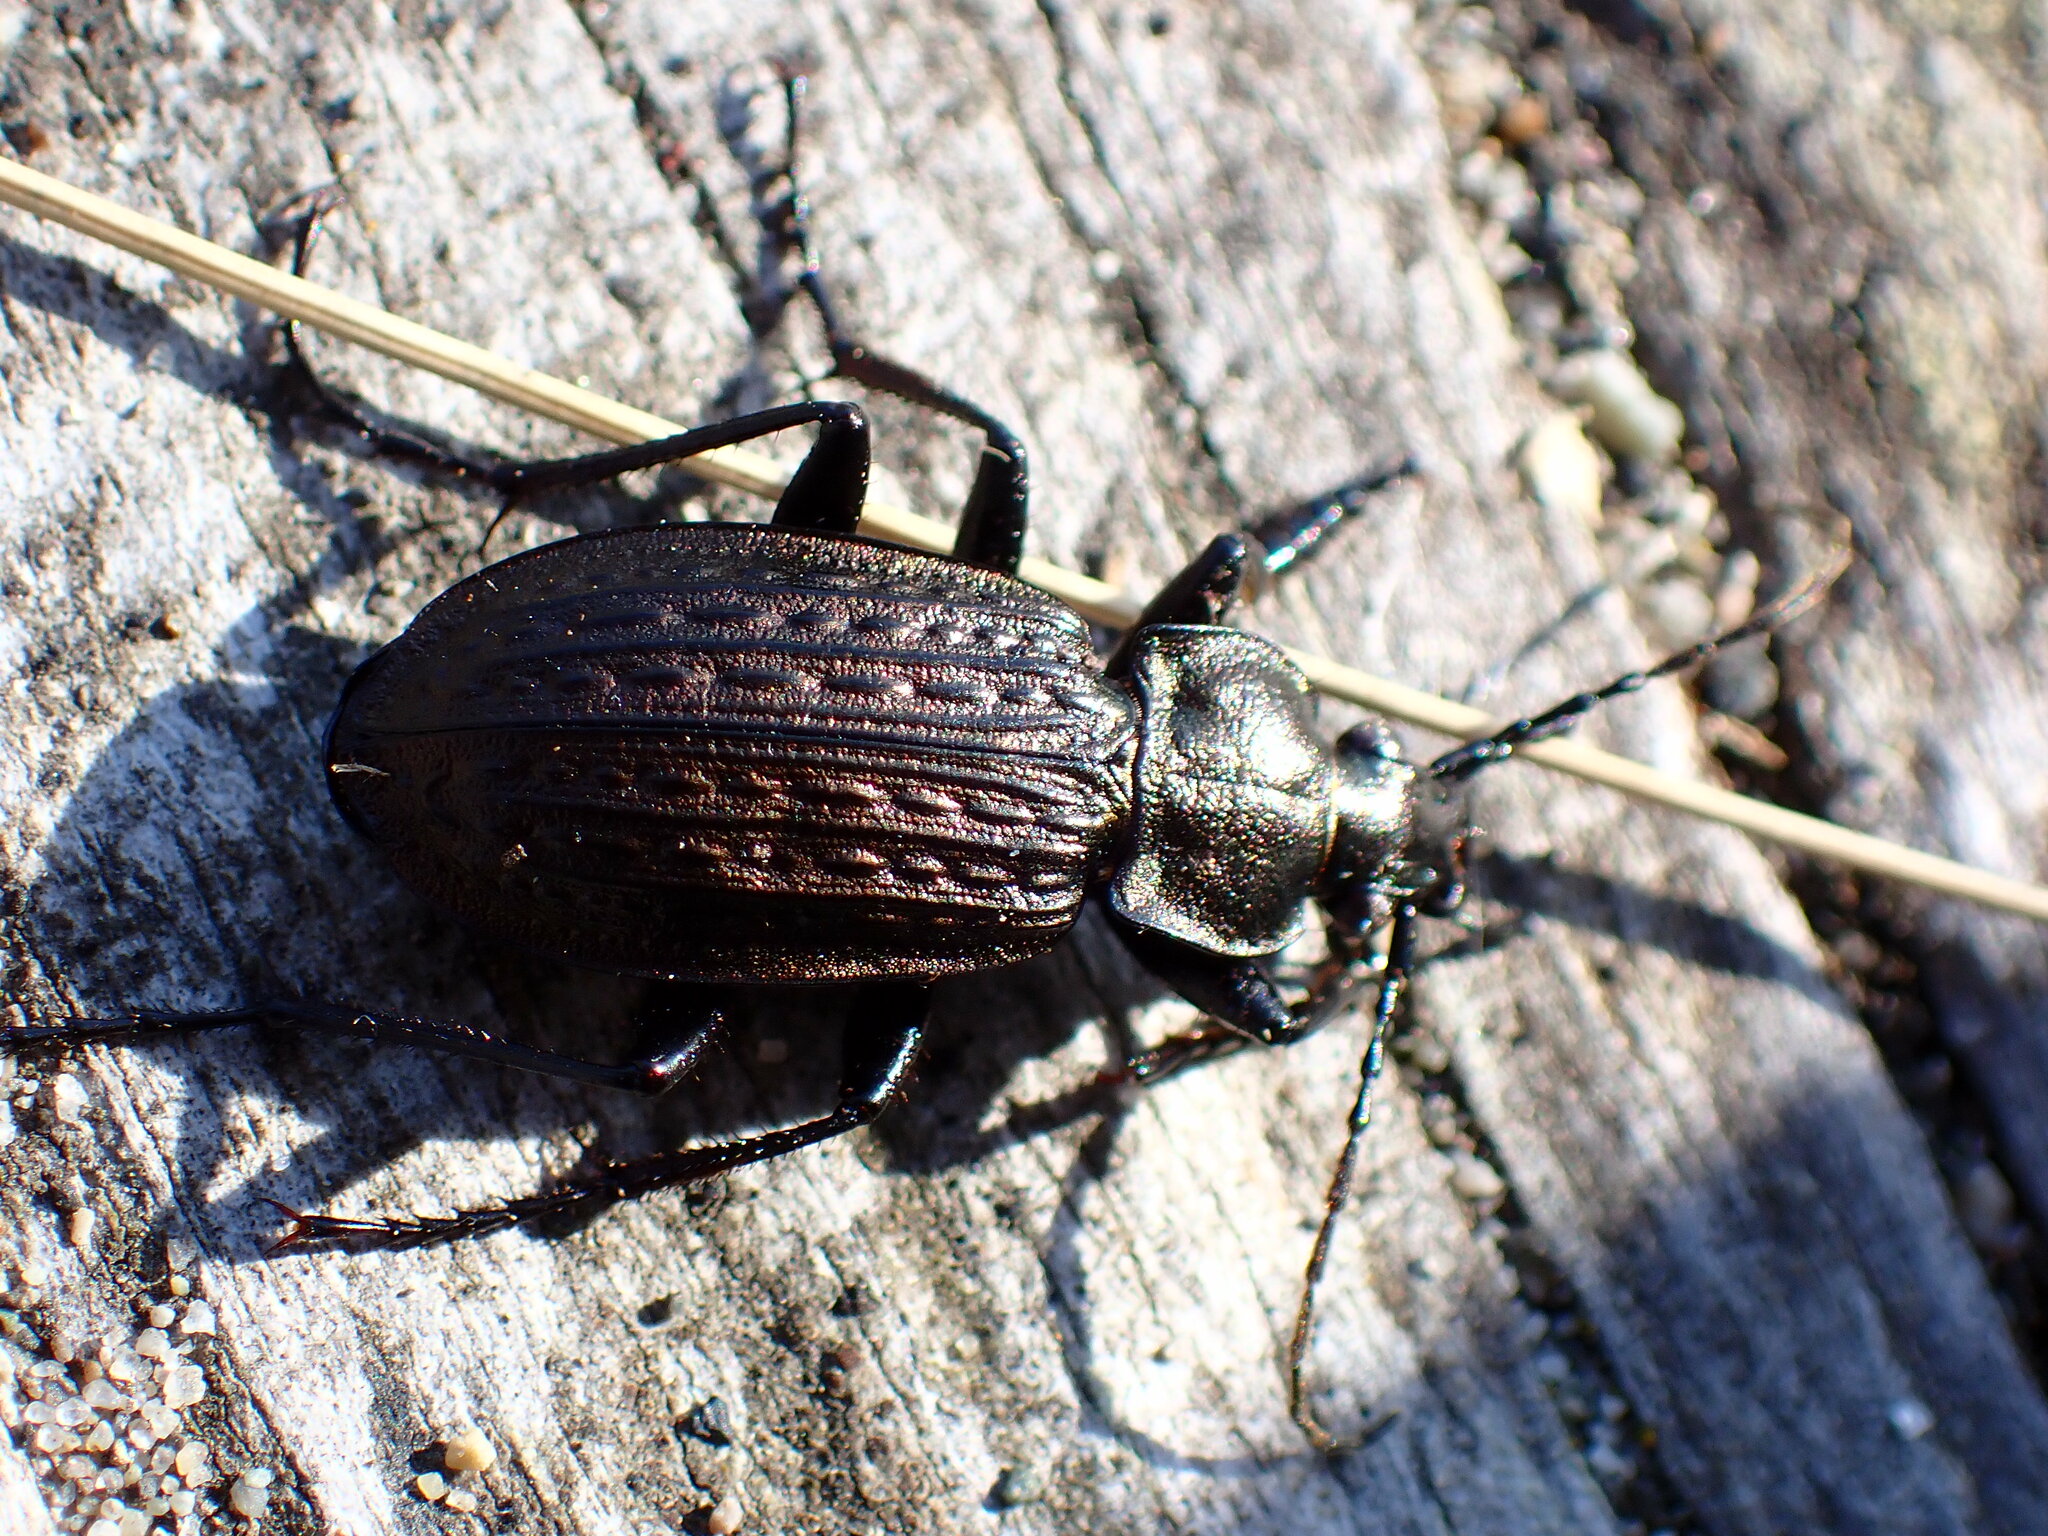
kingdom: Animalia
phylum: Arthropoda
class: Insecta
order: Coleoptera
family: Carabidae
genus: Carabus
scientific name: Carabus granulatus
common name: Granulate ground beetle
